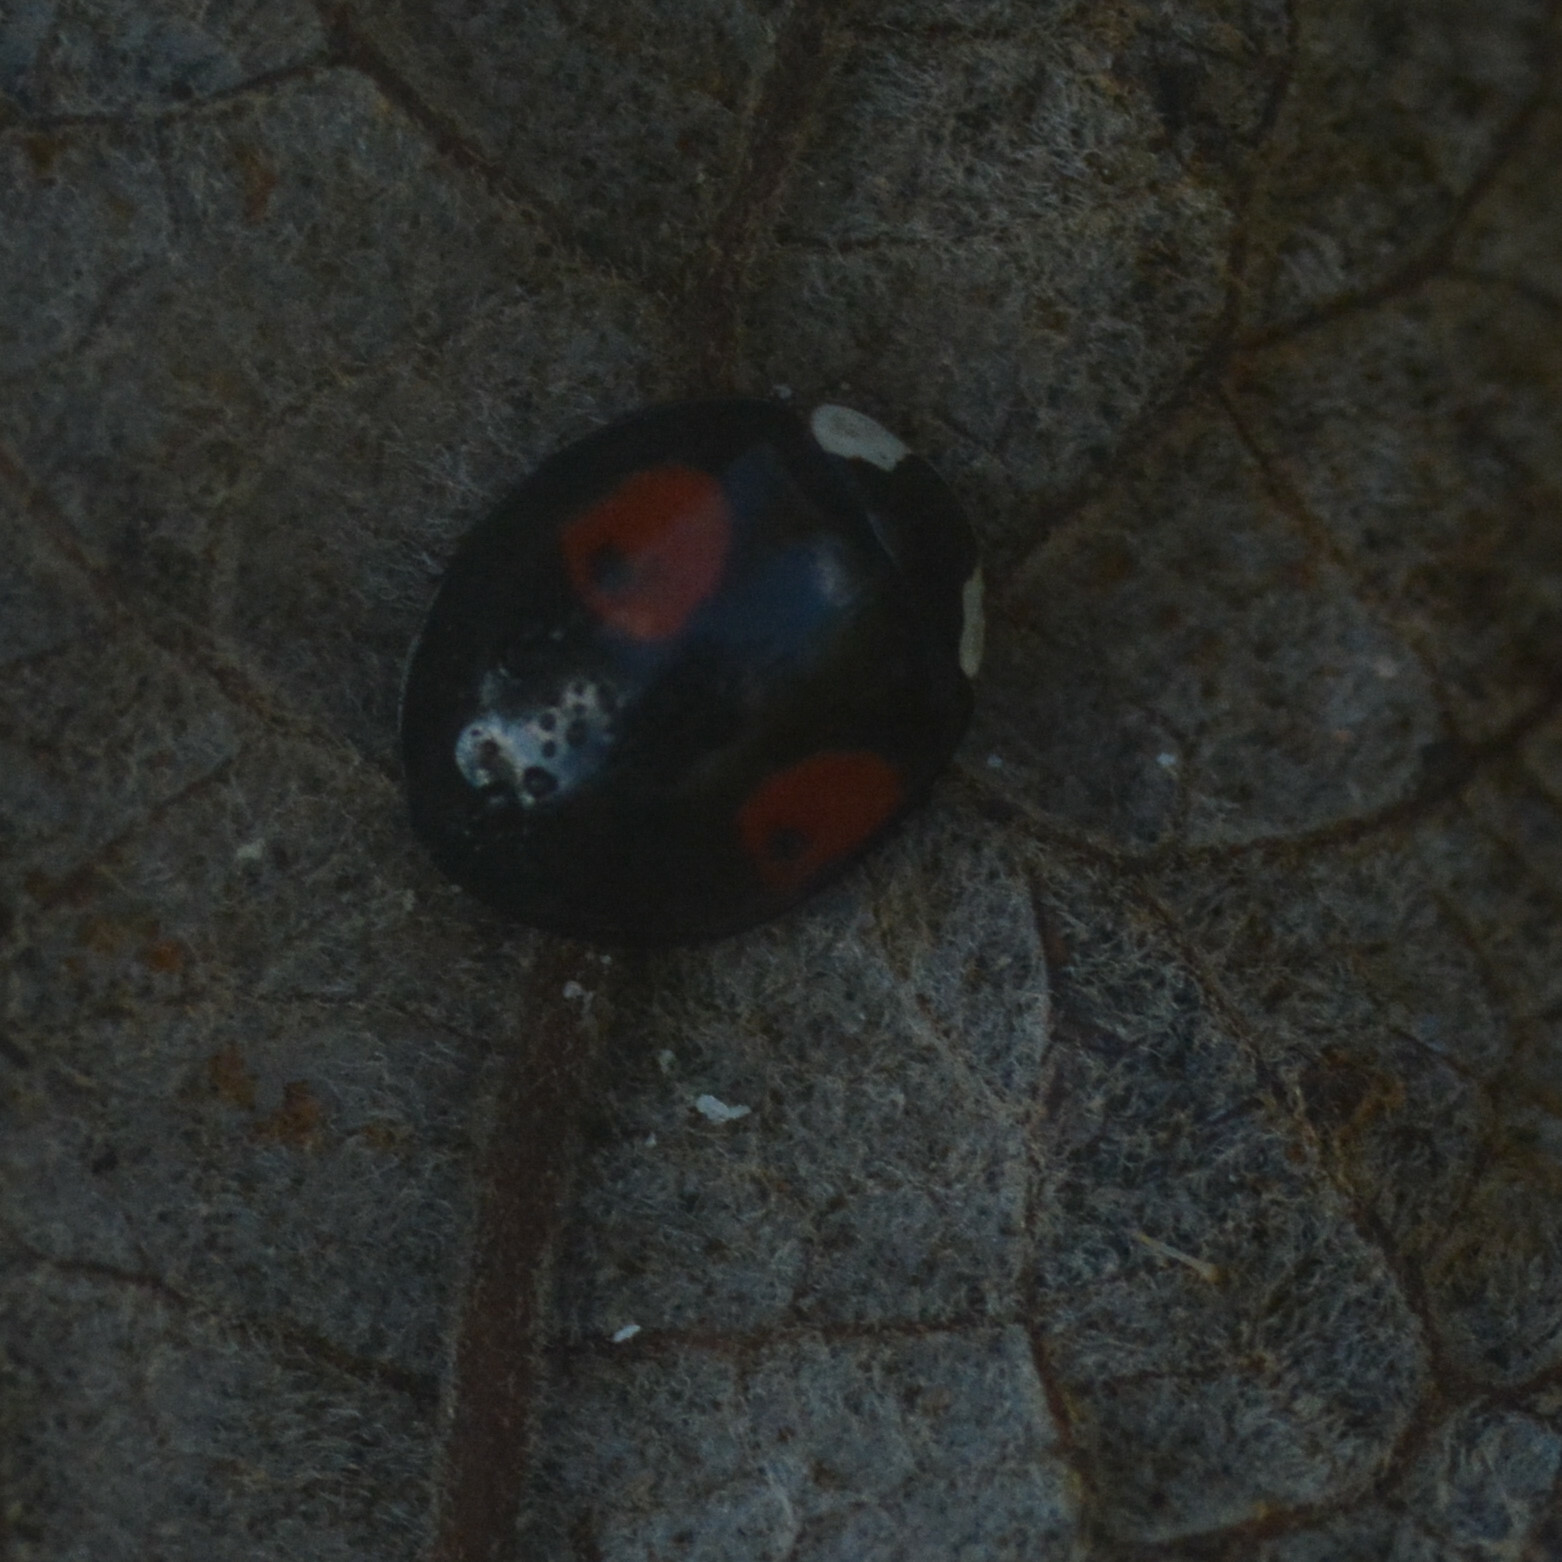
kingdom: Animalia
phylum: Arthropoda
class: Insecta
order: Coleoptera
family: Coccinellidae
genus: Harmonia
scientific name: Harmonia axyridis
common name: Harlequin ladybird
